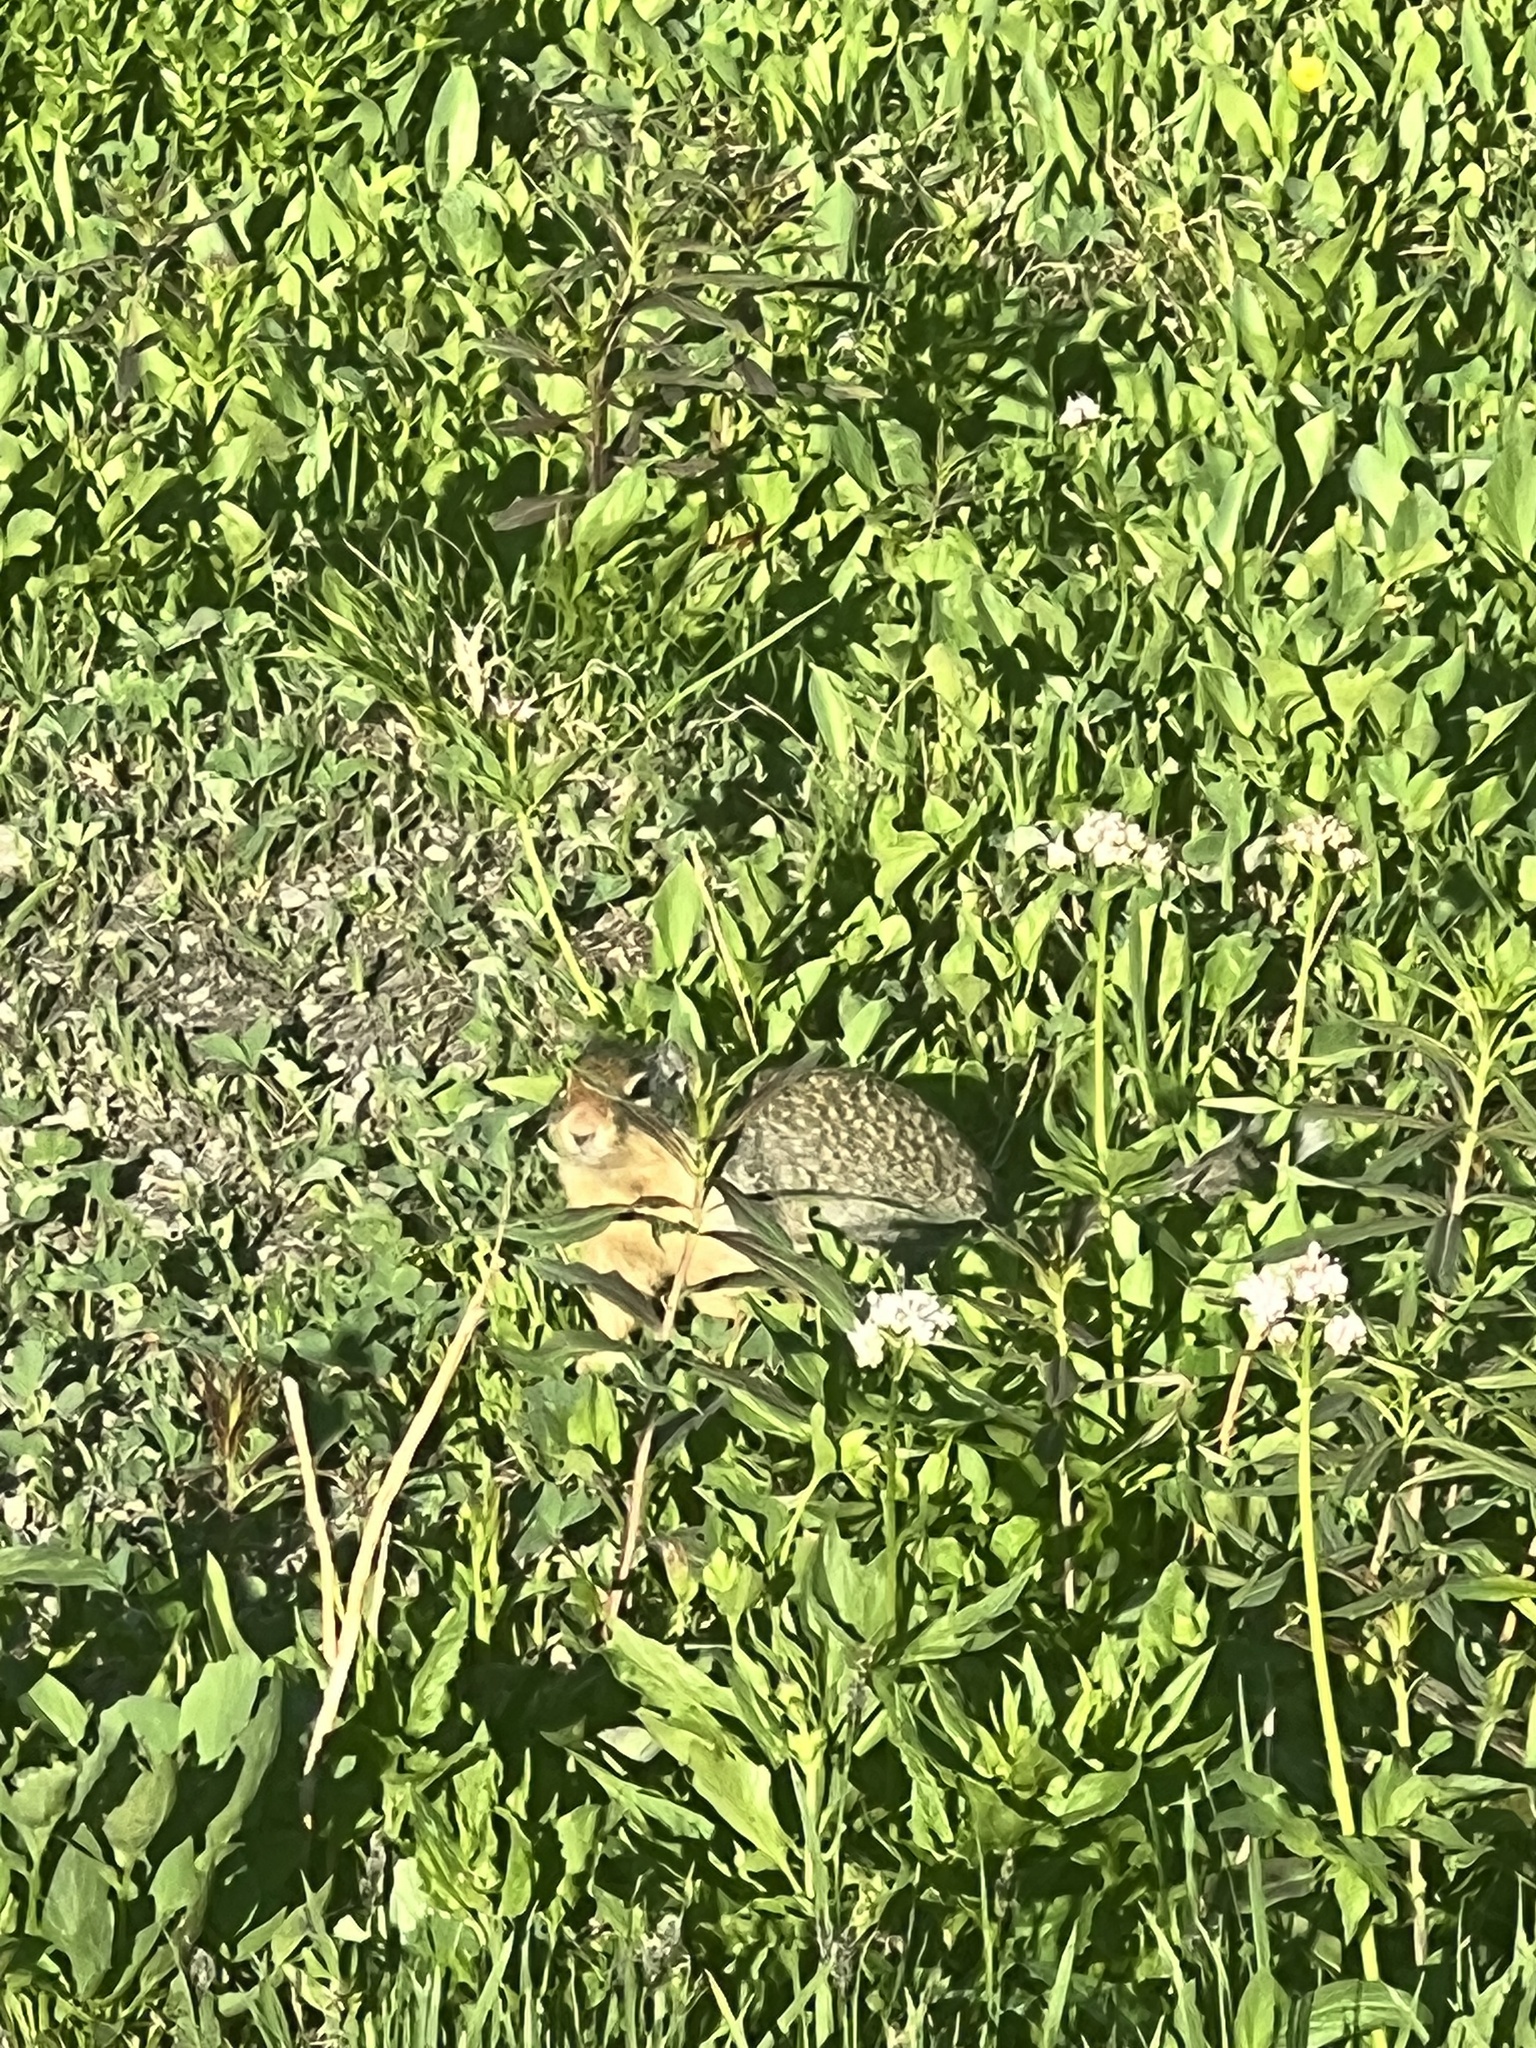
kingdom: Animalia
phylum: Chordata
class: Mammalia
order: Rodentia
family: Sciuridae
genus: Urocitellus
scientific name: Urocitellus columbianus
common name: Columbian ground squirrel
